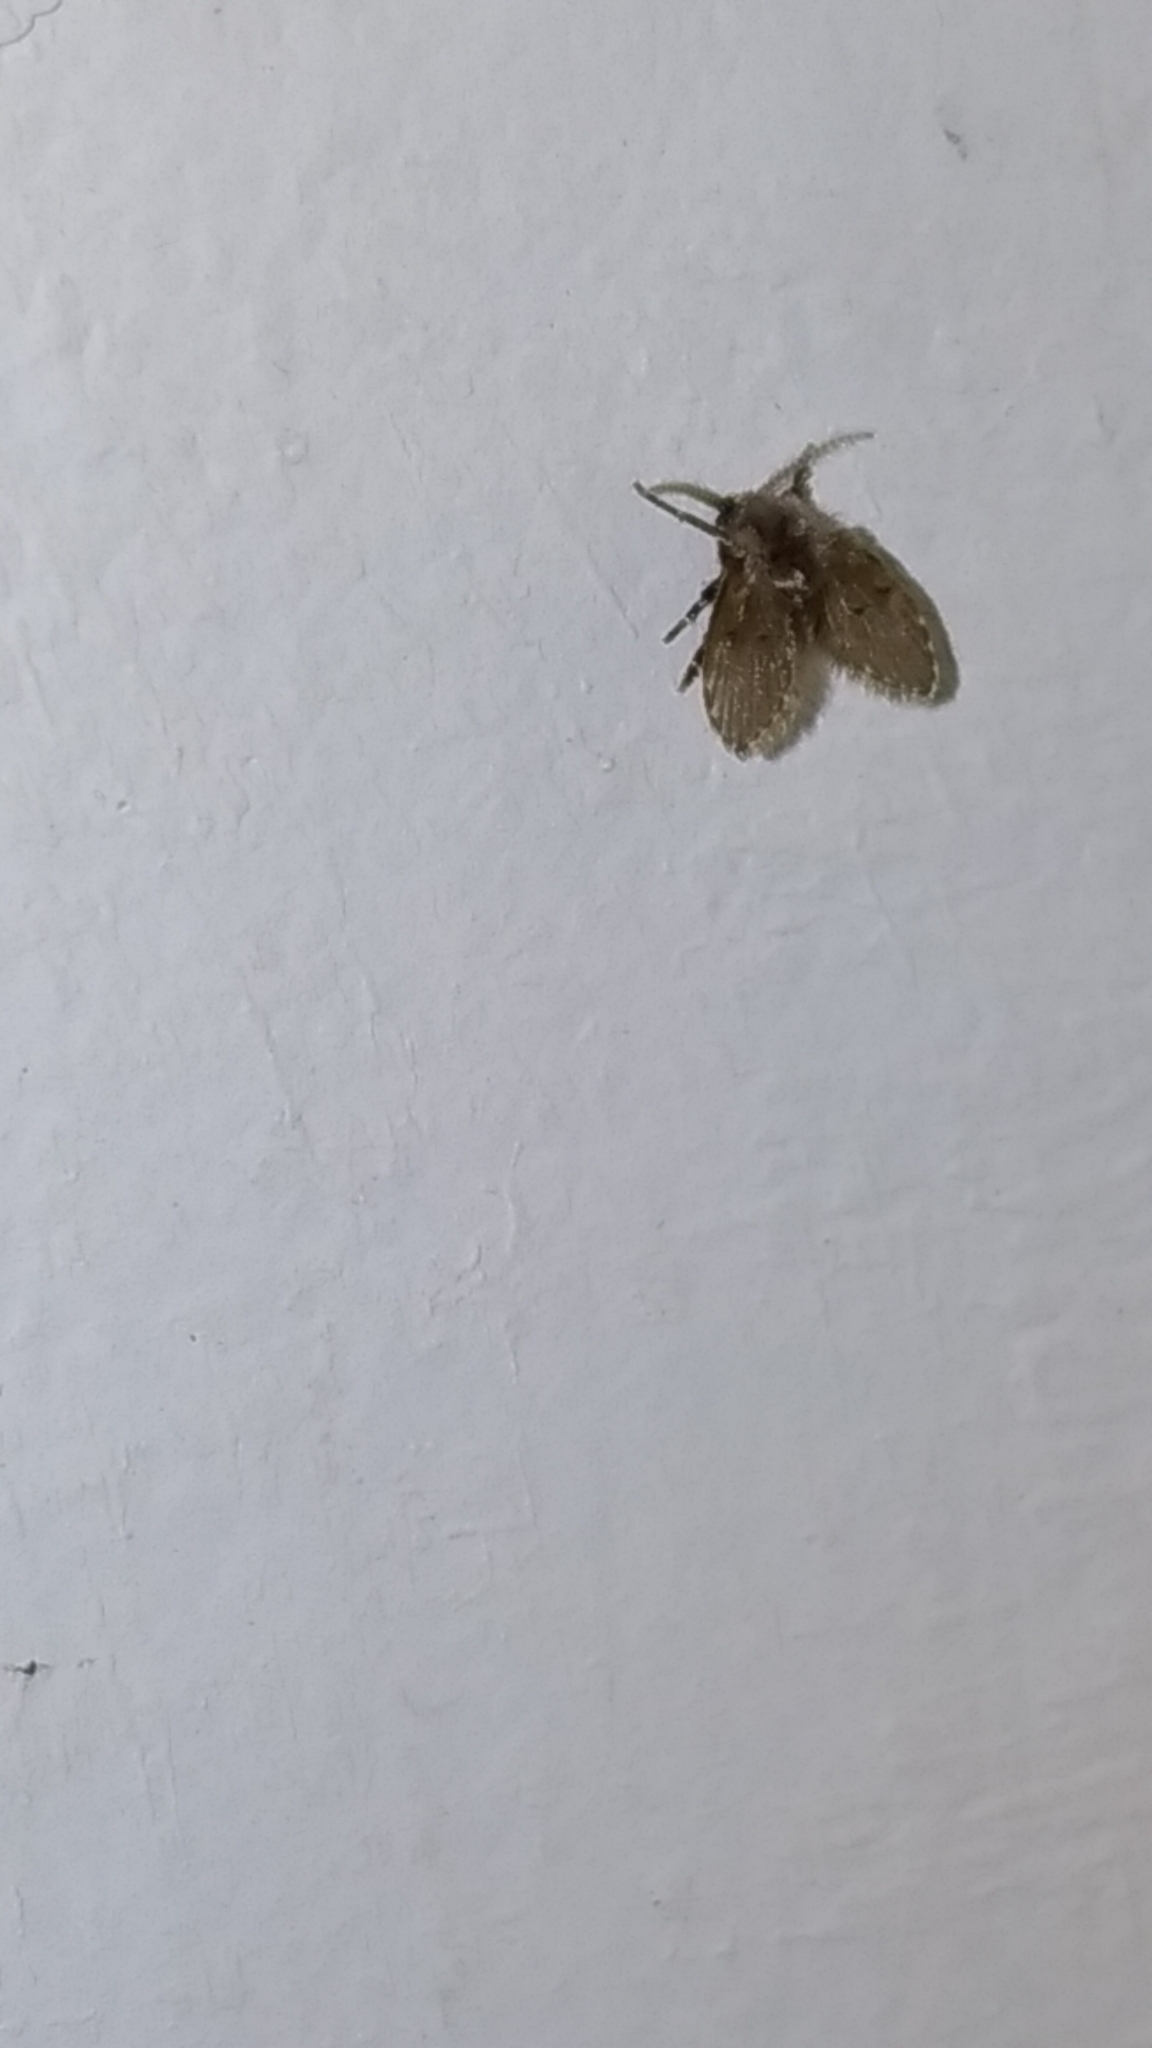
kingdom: Animalia
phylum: Arthropoda
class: Insecta
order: Diptera
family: Psychodidae
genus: Clogmia
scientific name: Clogmia albipunctatus
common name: White-spotted moth fly
